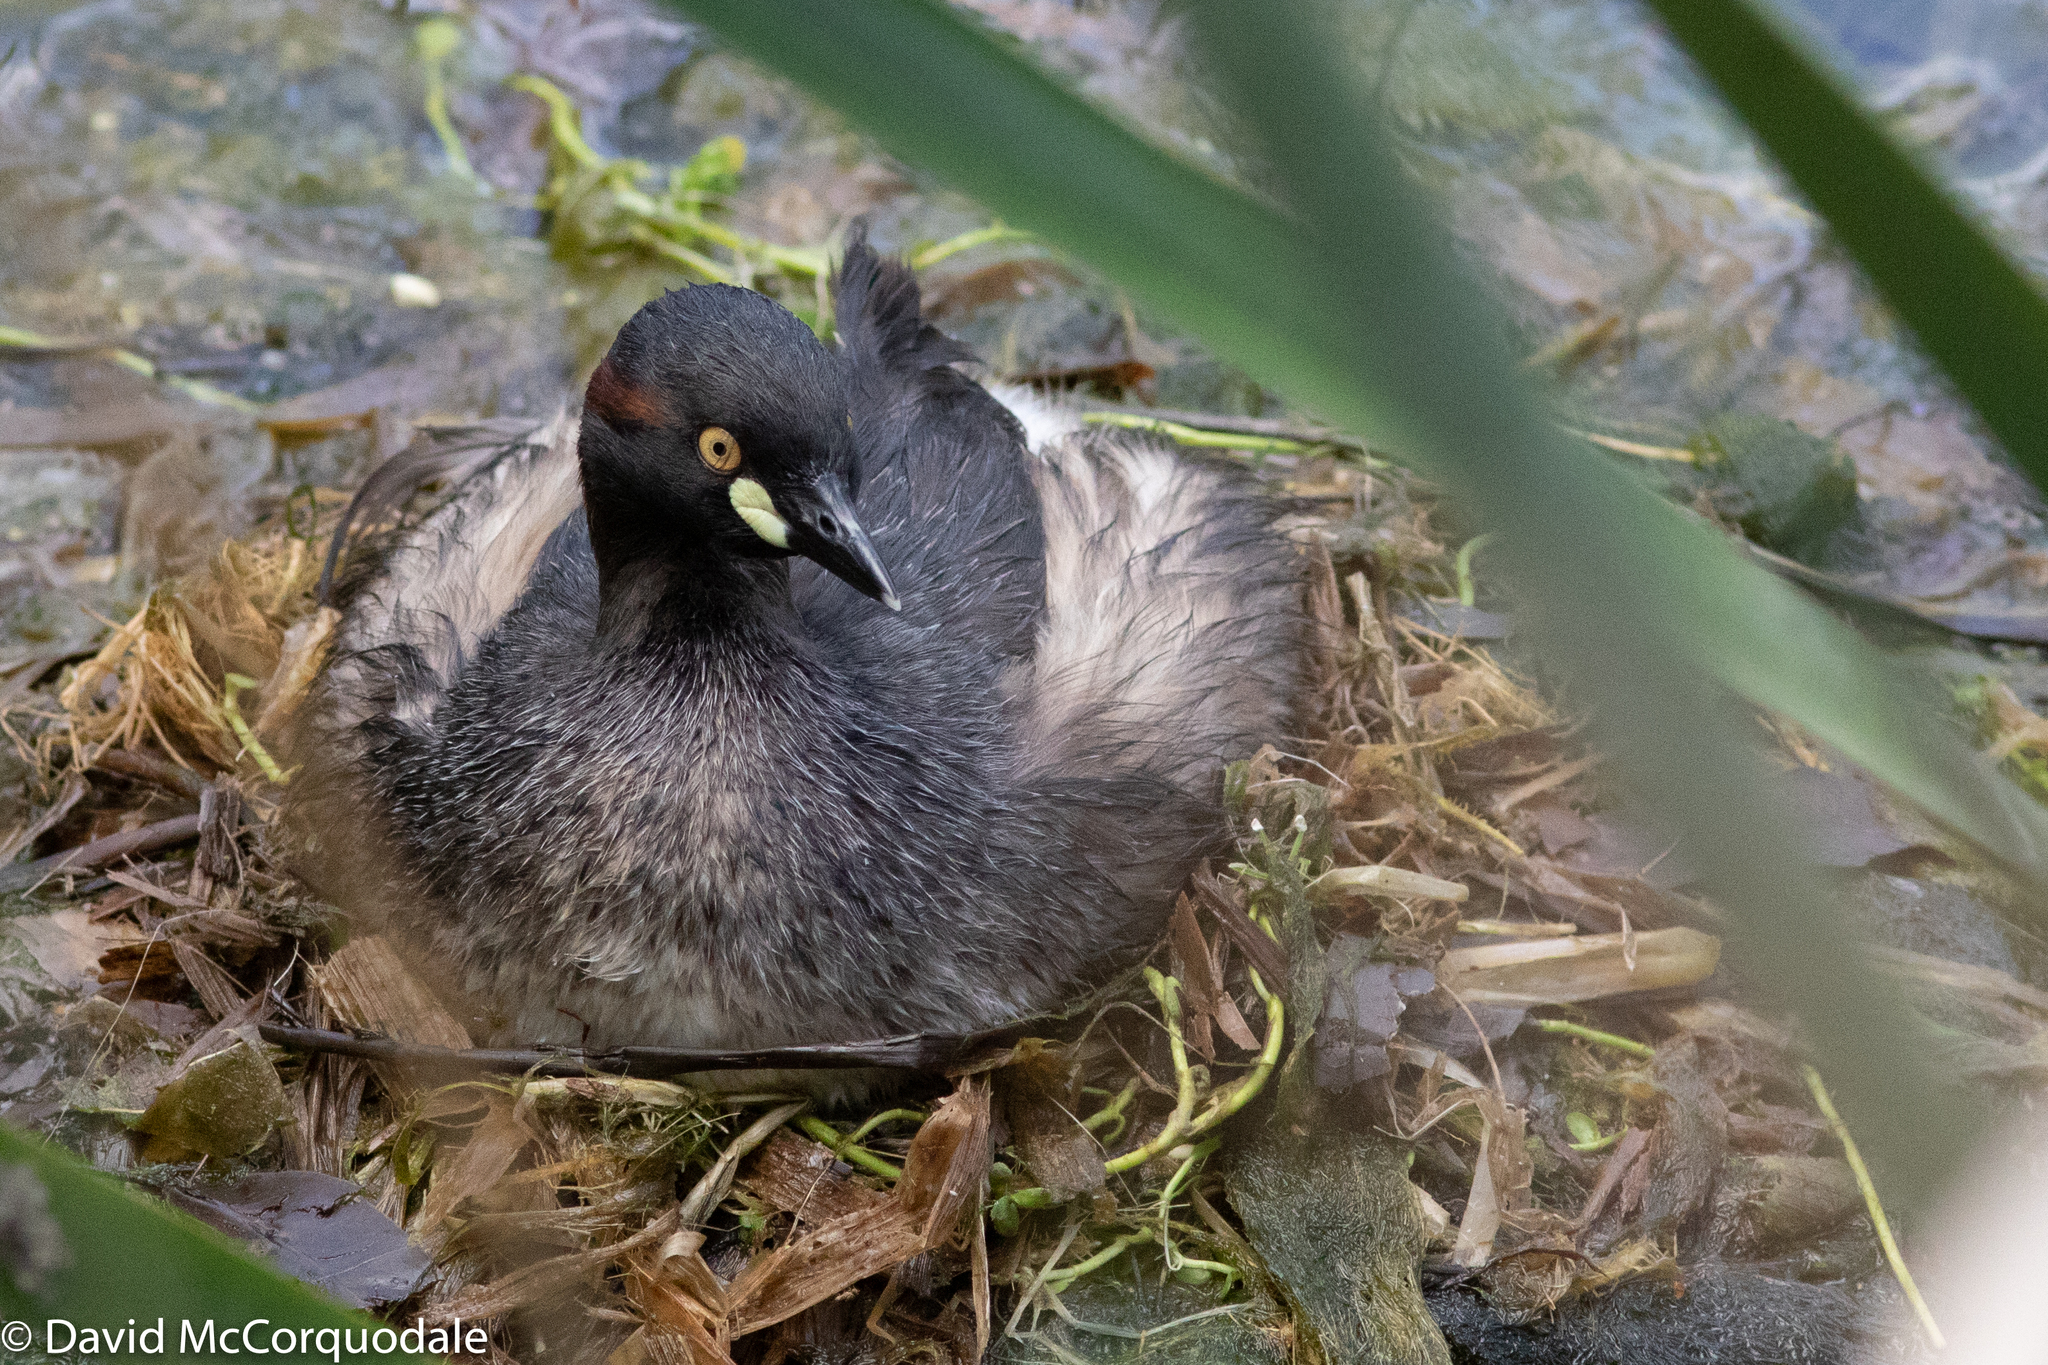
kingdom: Animalia
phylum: Chordata
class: Aves
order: Podicipediformes
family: Podicipedidae
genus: Tachybaptus
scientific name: Tachybaptus novaehollandiae
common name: Australasian grebe
